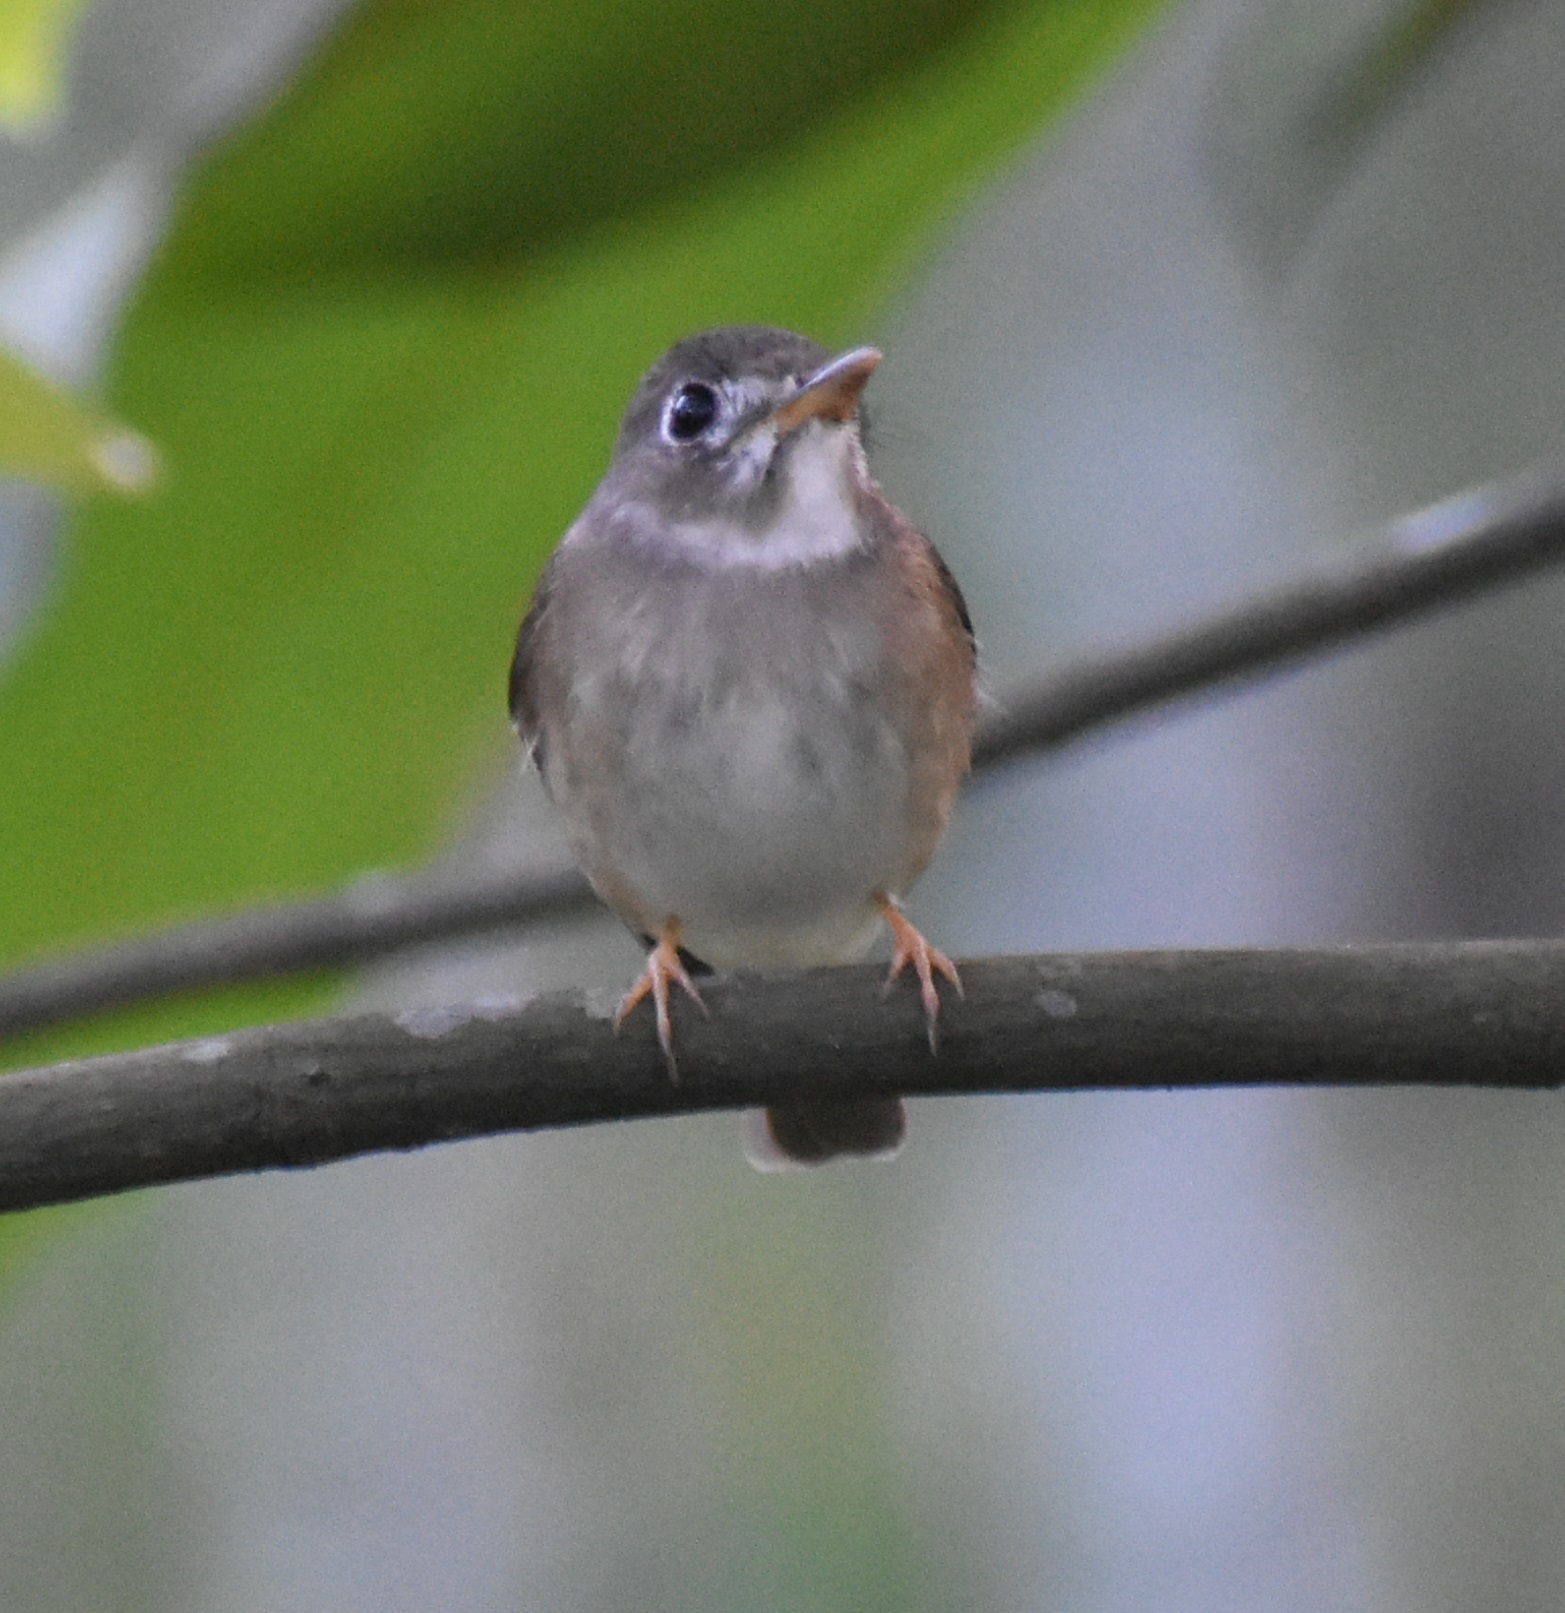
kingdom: Animalia
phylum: Chordata
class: Aves
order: Passeriformes
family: Muscicapidae
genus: Muscicapa
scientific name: Muscicapa muttui
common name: Brown-breasted flycatcher
